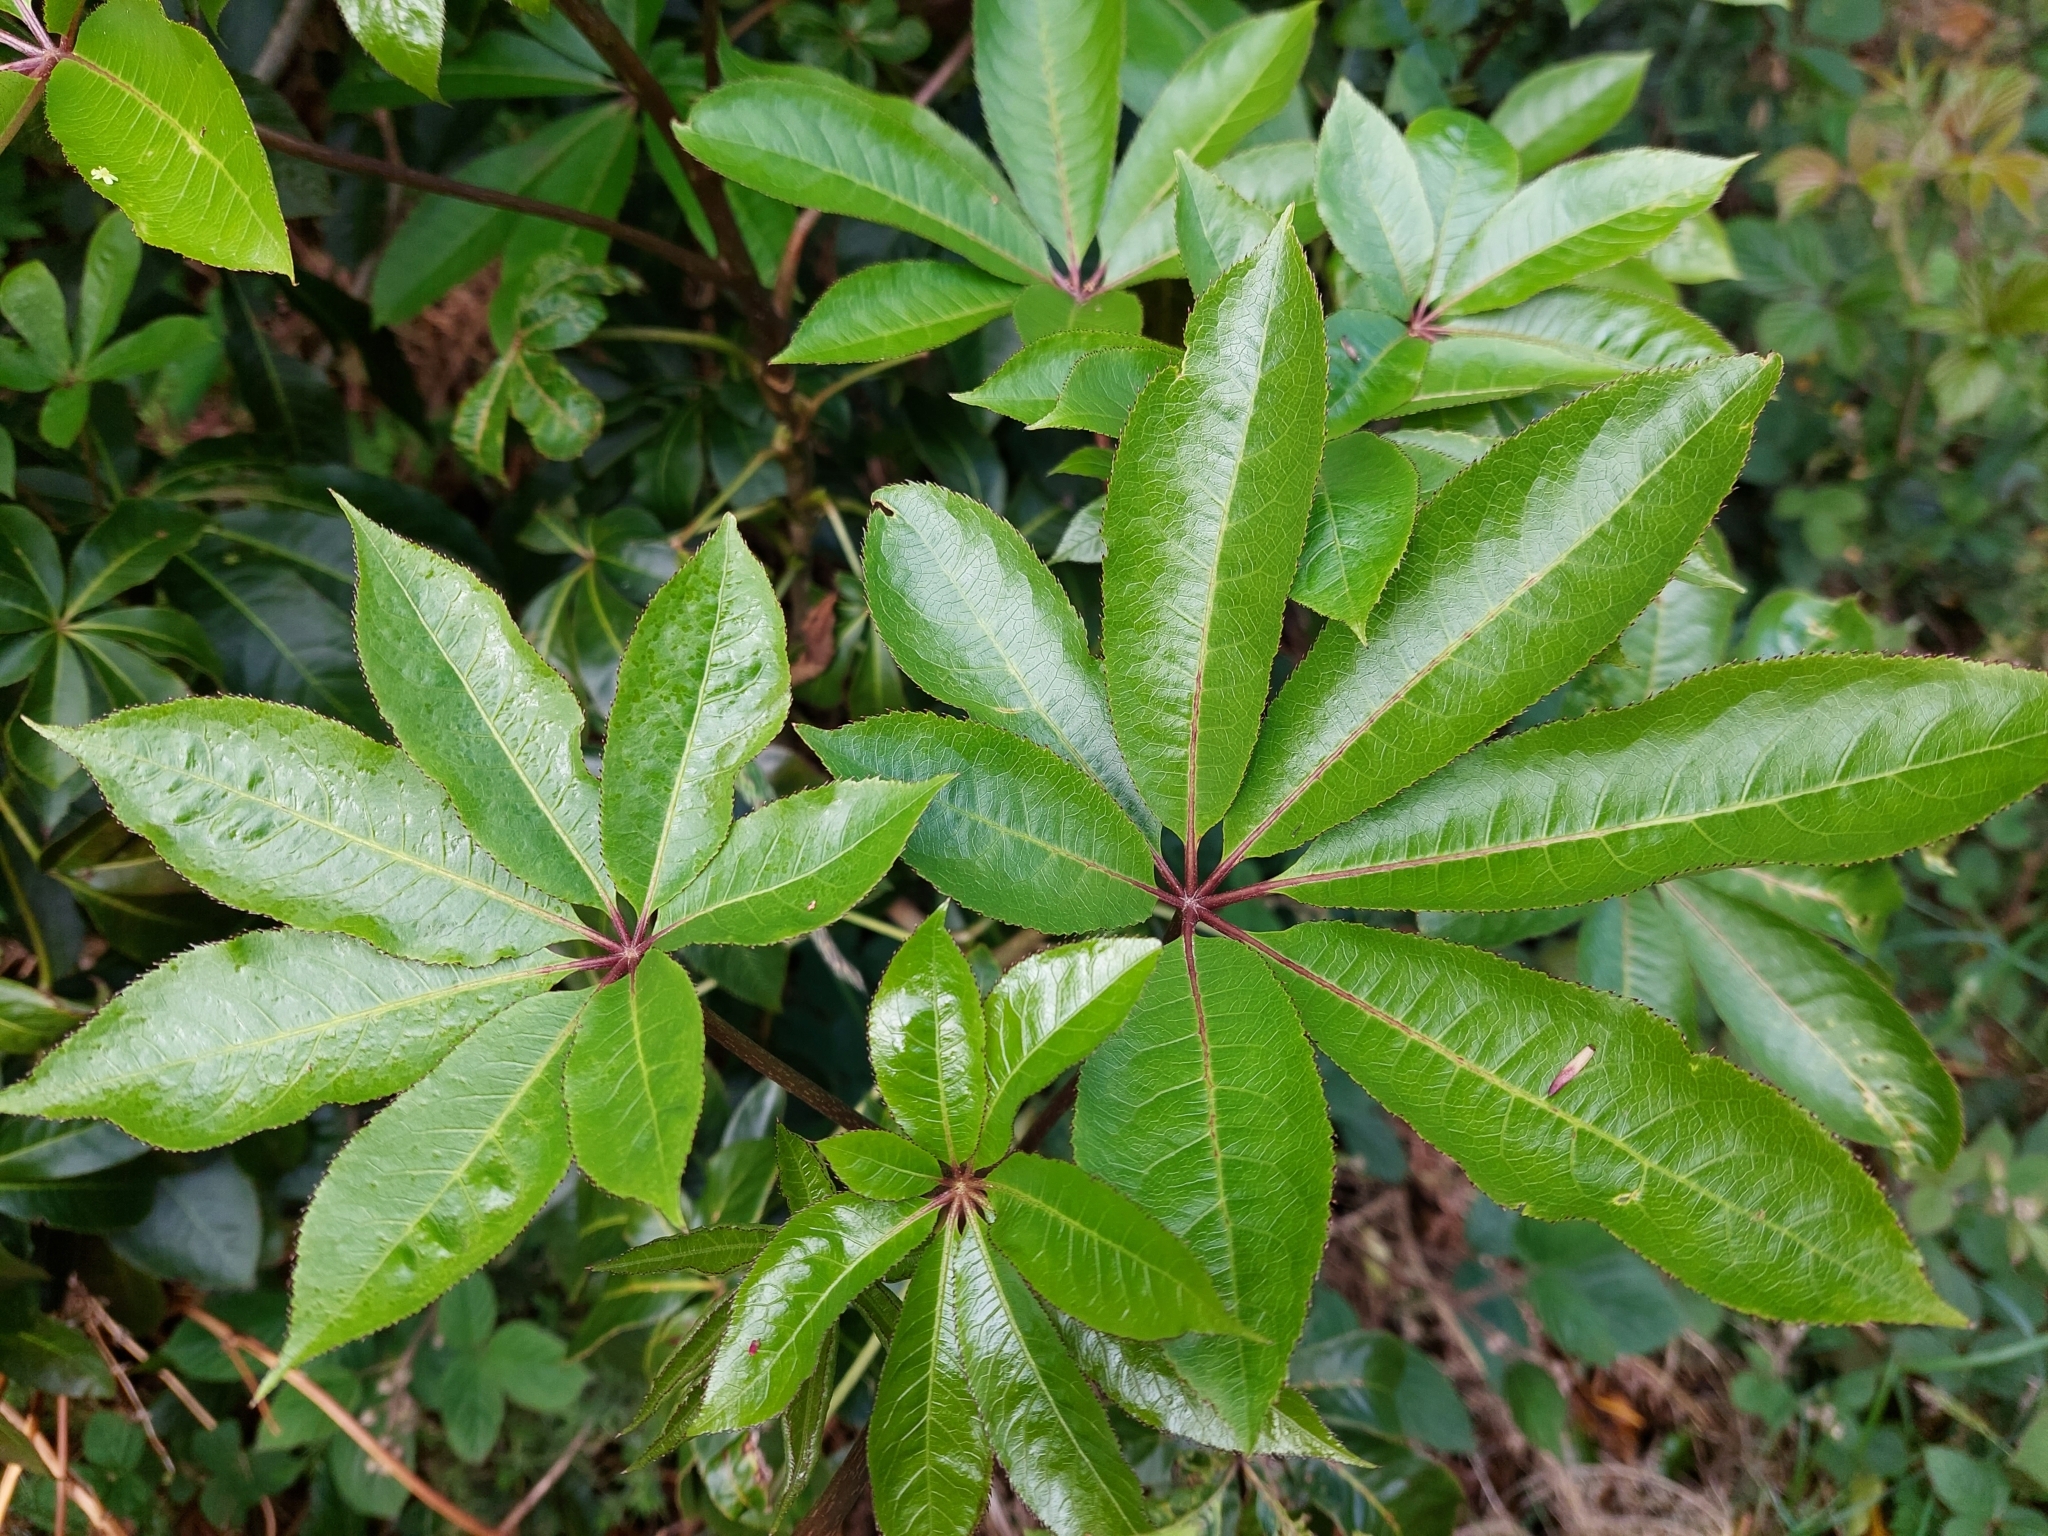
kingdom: Plantae
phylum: Tracheophyta
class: Magnoliopsida
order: Apiales
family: Araliaceae
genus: Schefflera
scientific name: Schefflera digitata
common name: Pate
